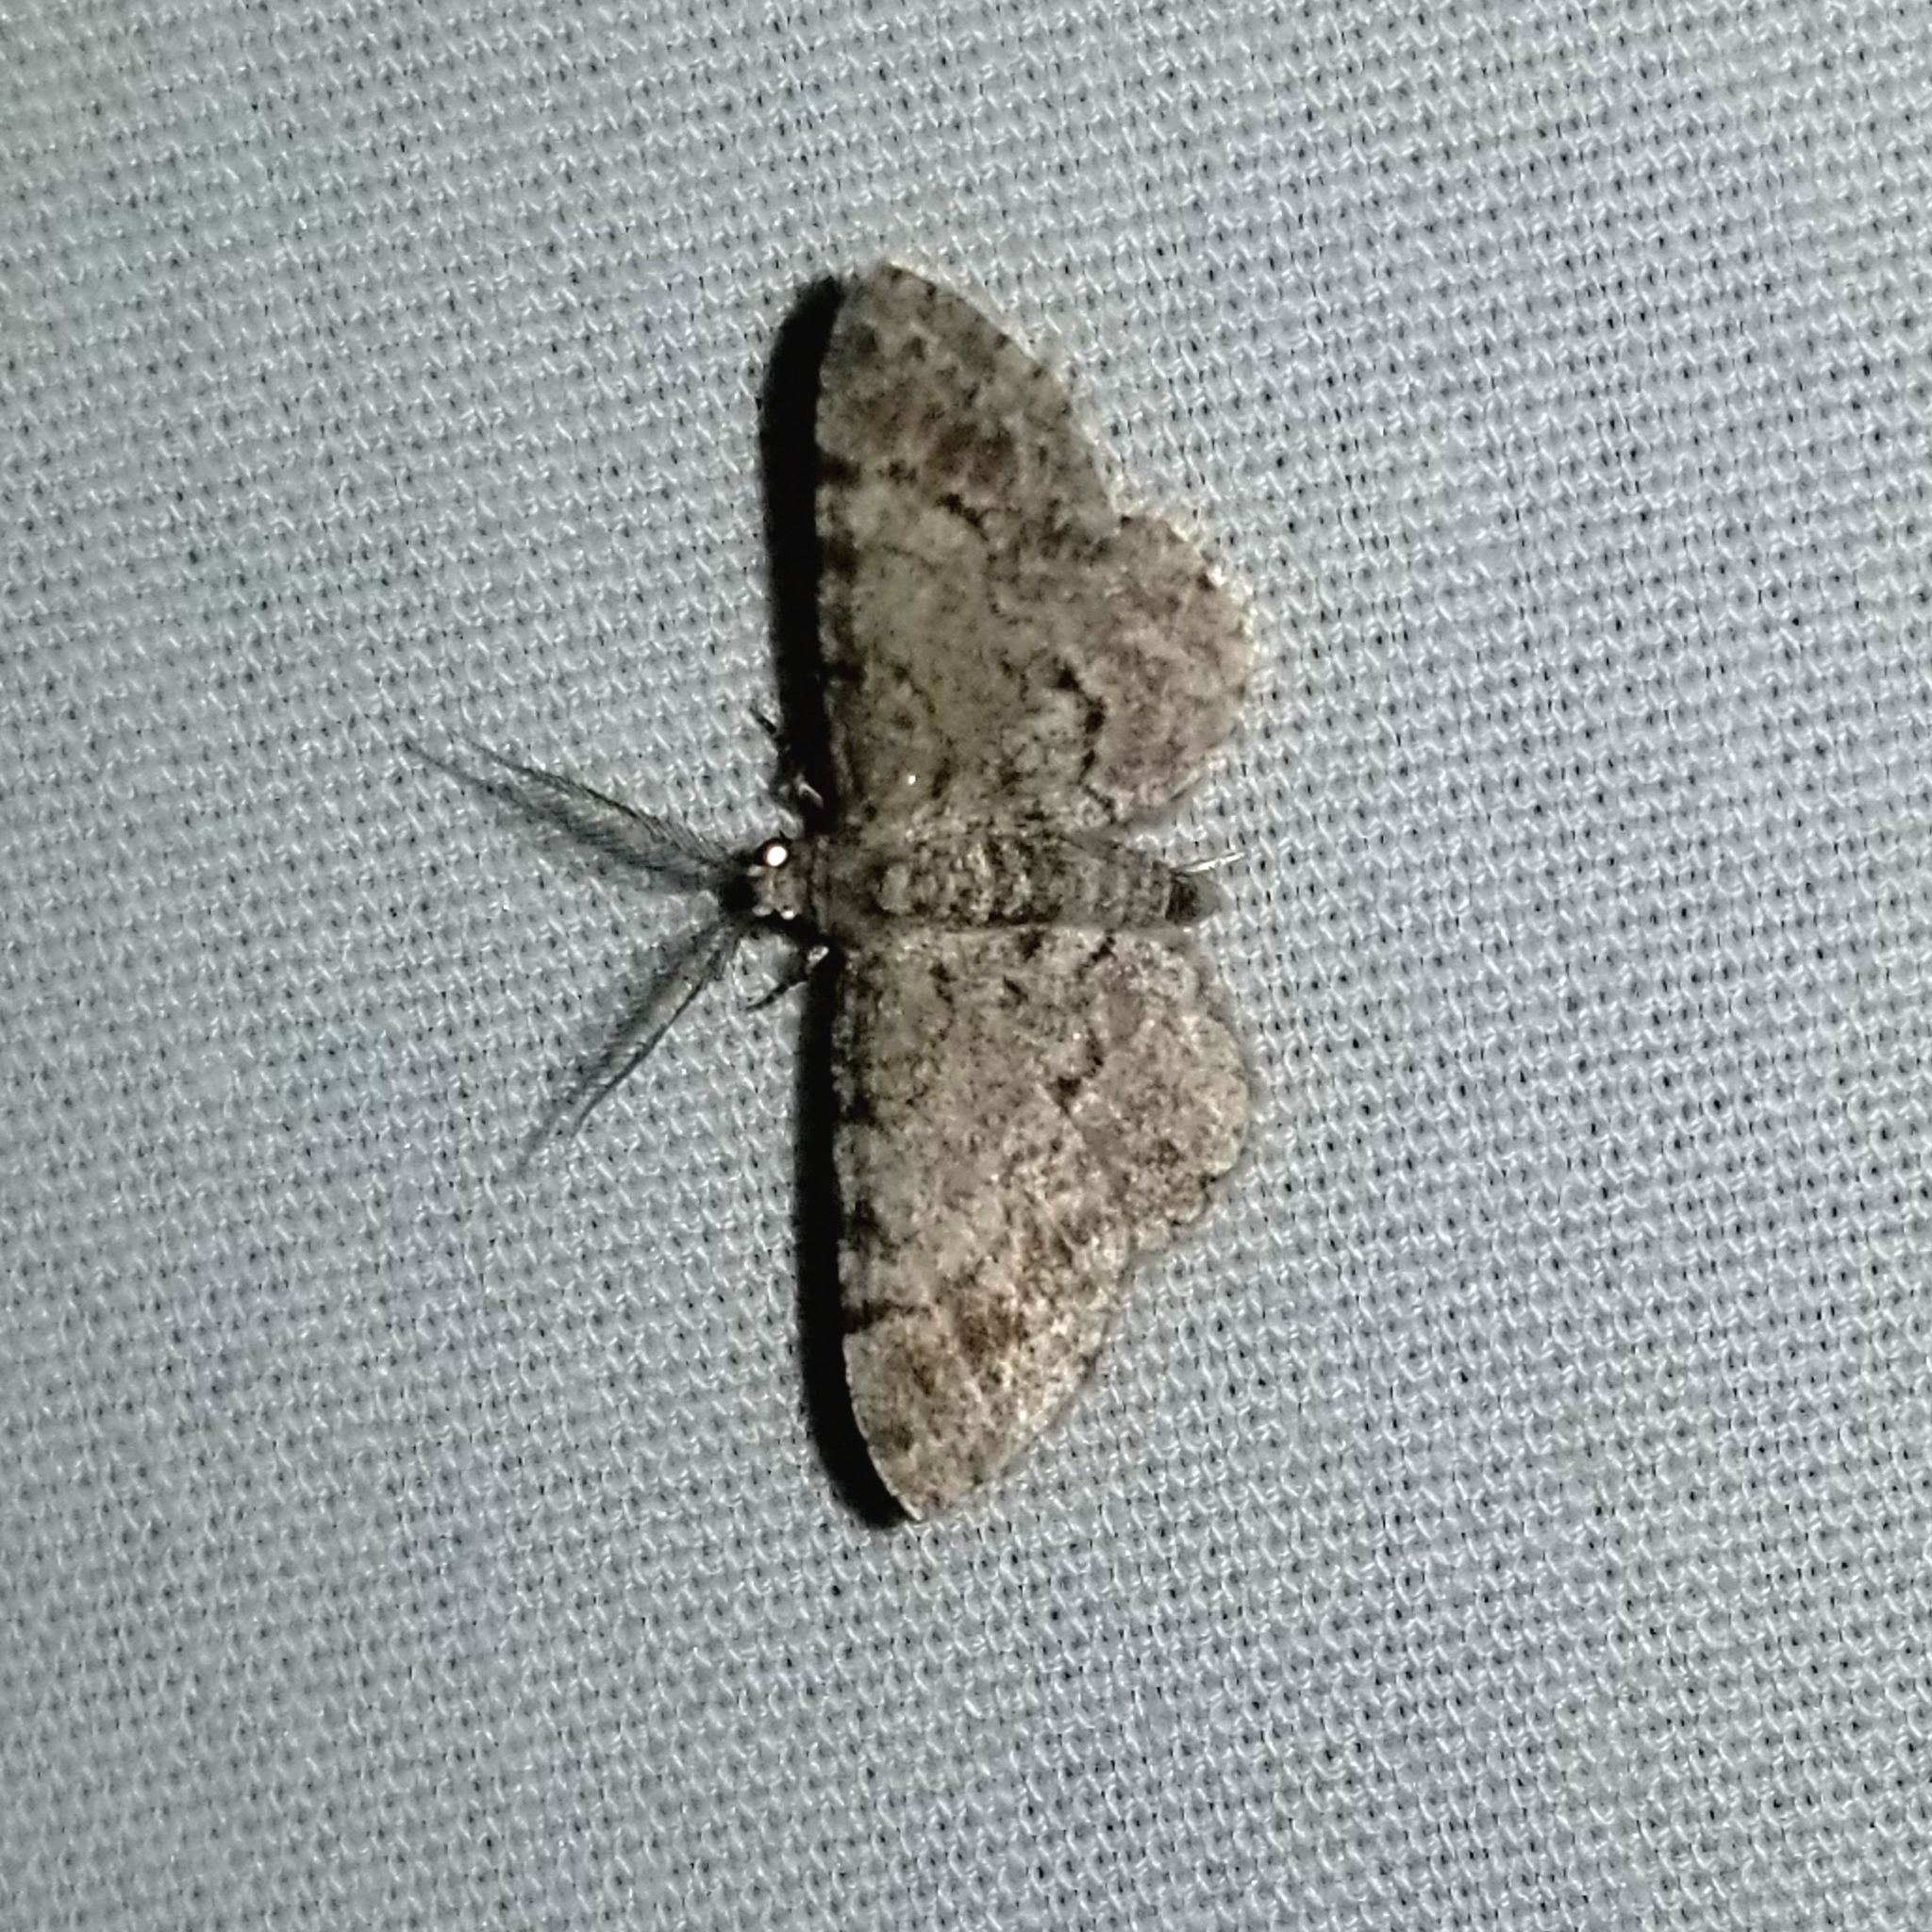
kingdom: Animalia
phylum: Arthropoda
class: Insecta
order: Lepidoptera
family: Geometridae
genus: Glenoides
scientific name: Glenoides texanaria
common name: Texas gray
